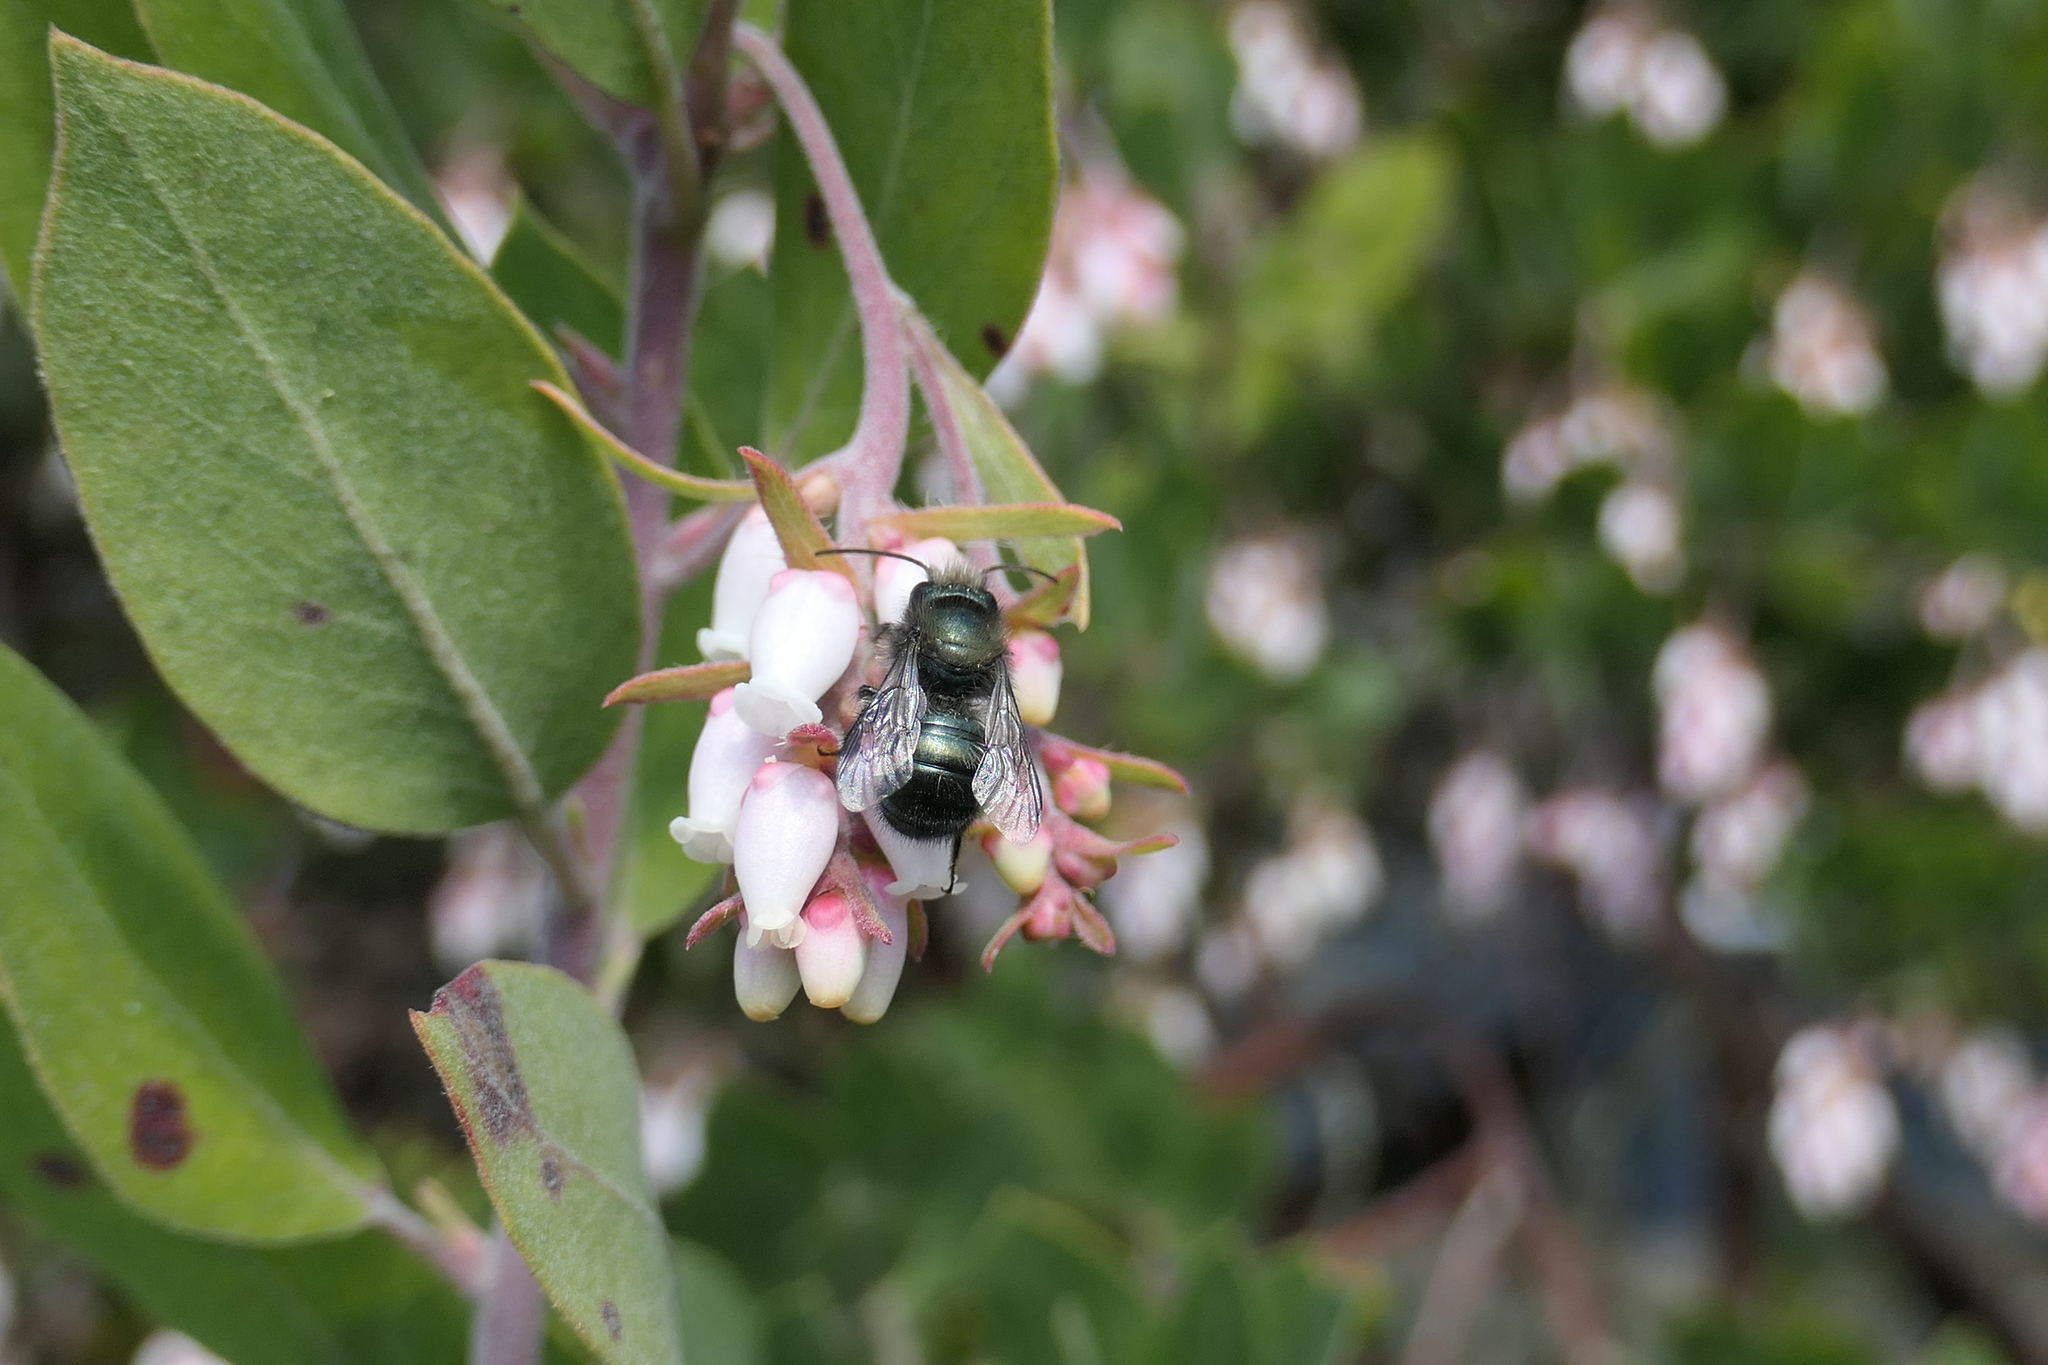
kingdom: Animalia
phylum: Arthropoda
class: Insecta
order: Hymenoptera
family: Megachilidae
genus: Osmia
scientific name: Osmia lignaria
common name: Blue orchard bee
